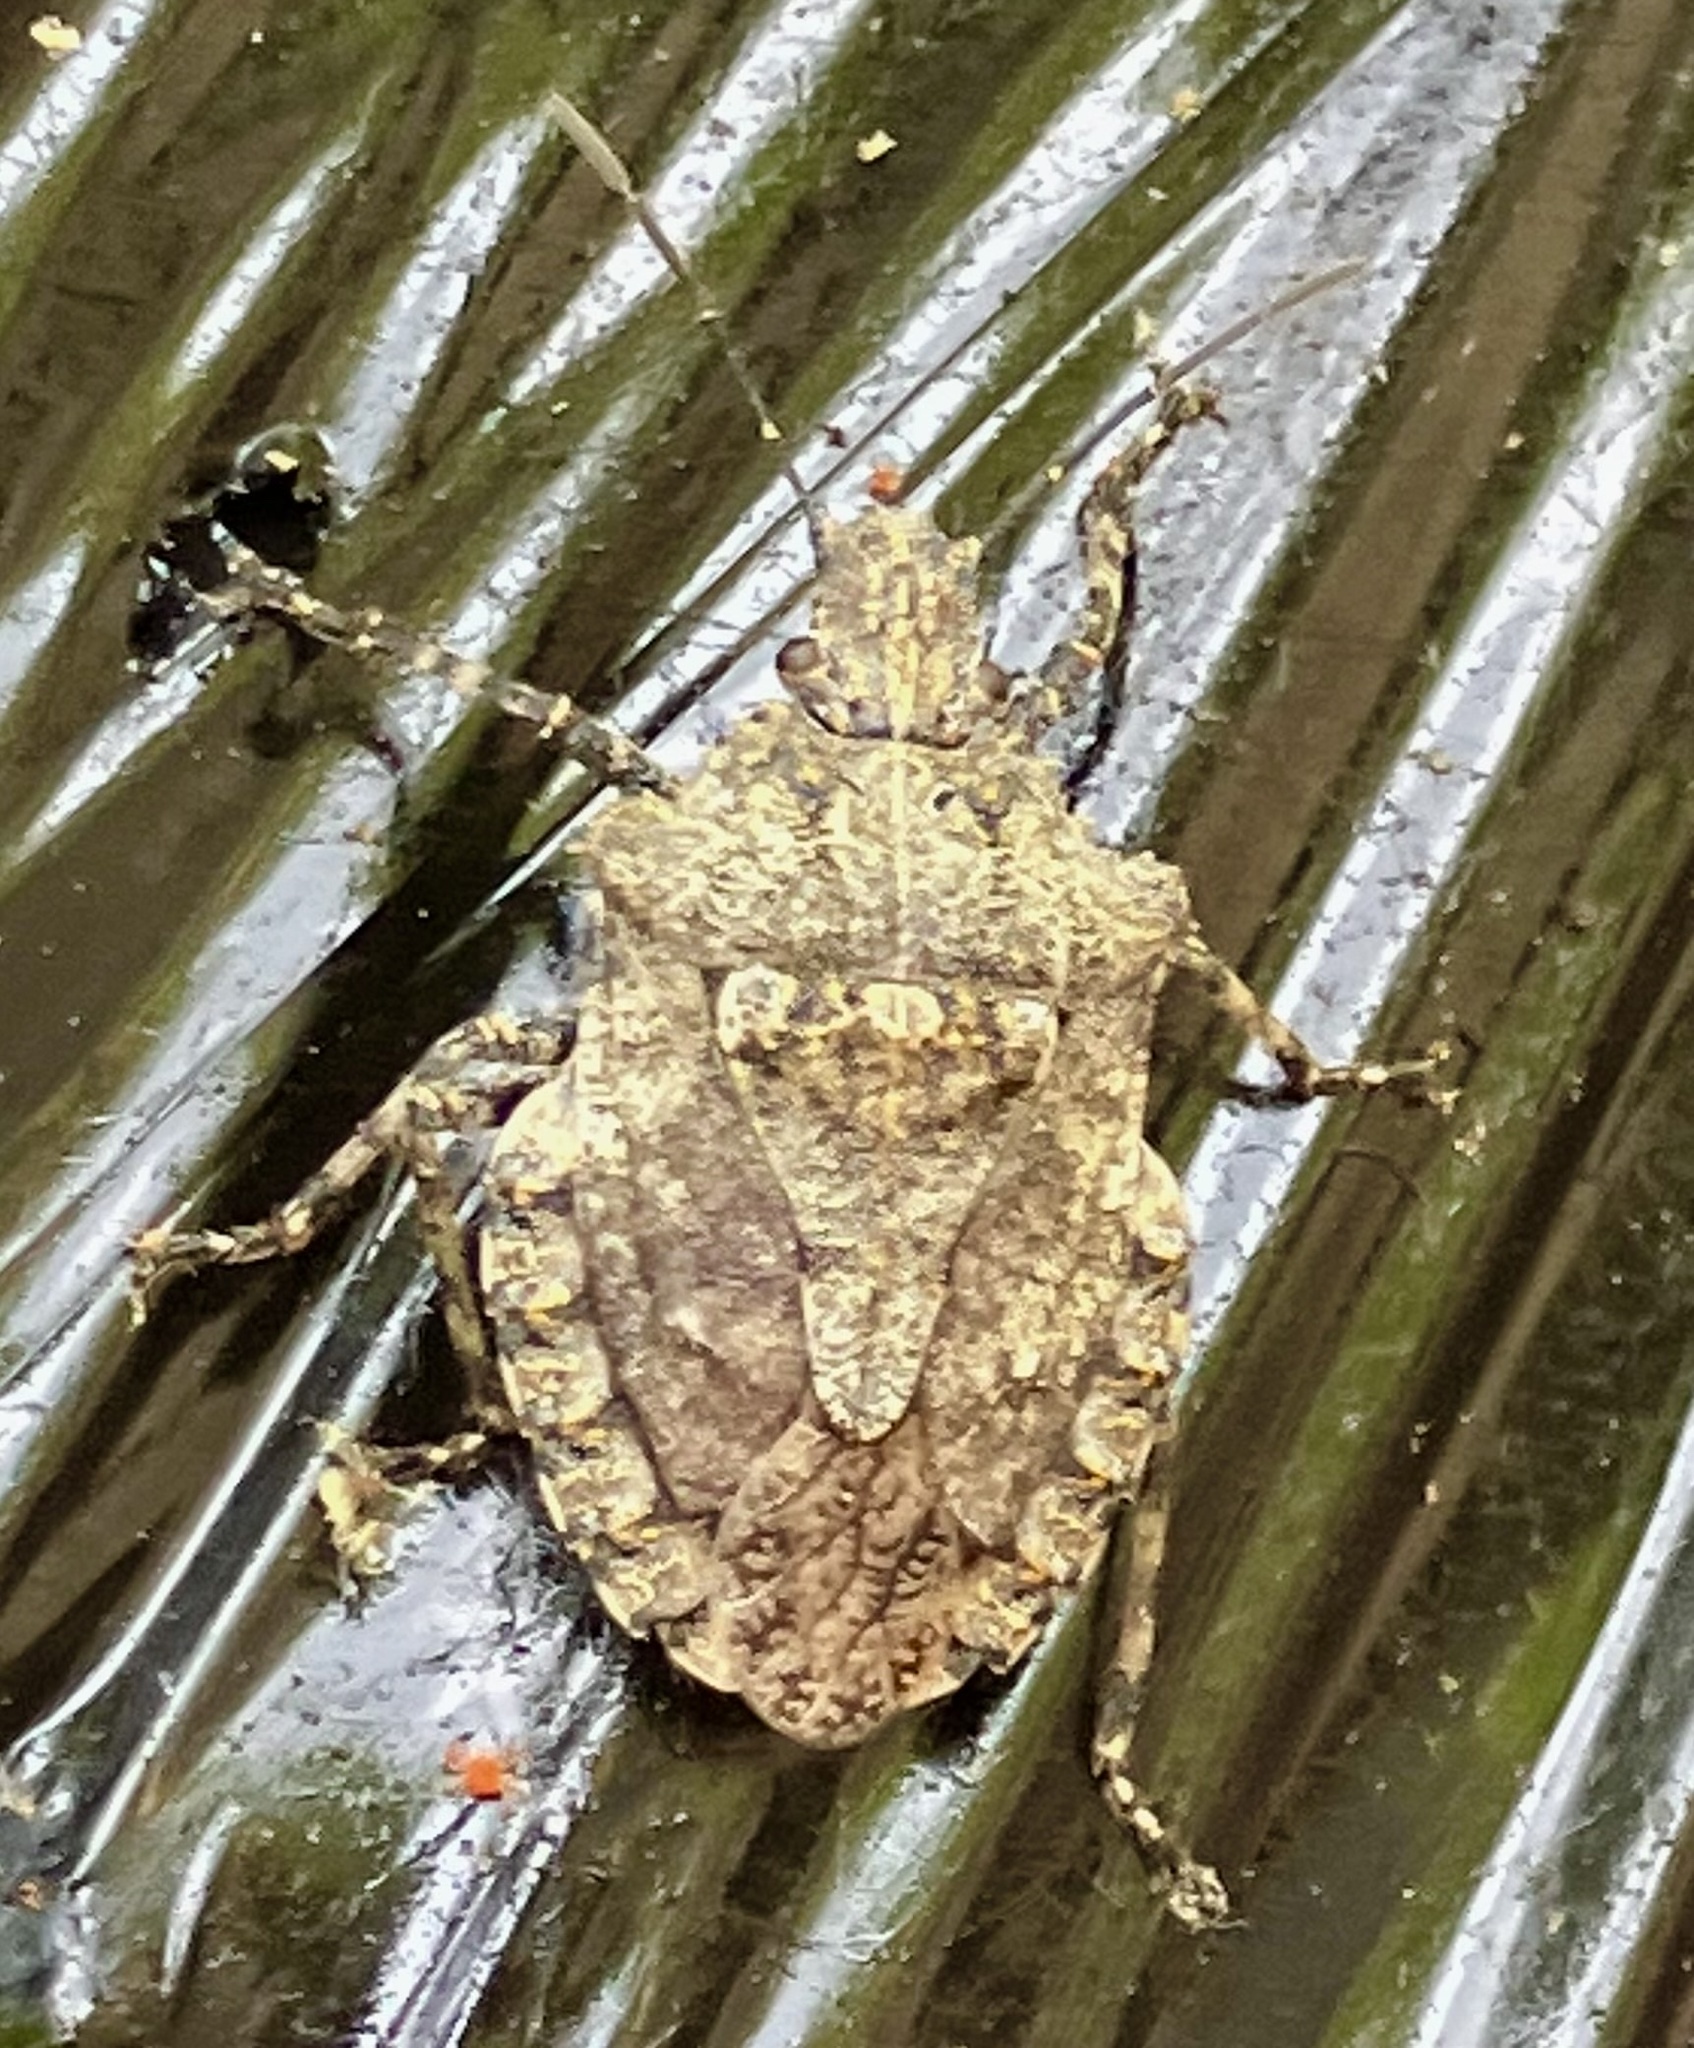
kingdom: Animalia
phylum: Arthropoda
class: Insecta
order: Hemiptera
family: Pentatomidae
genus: Brochymena
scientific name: Brochymena arborea
